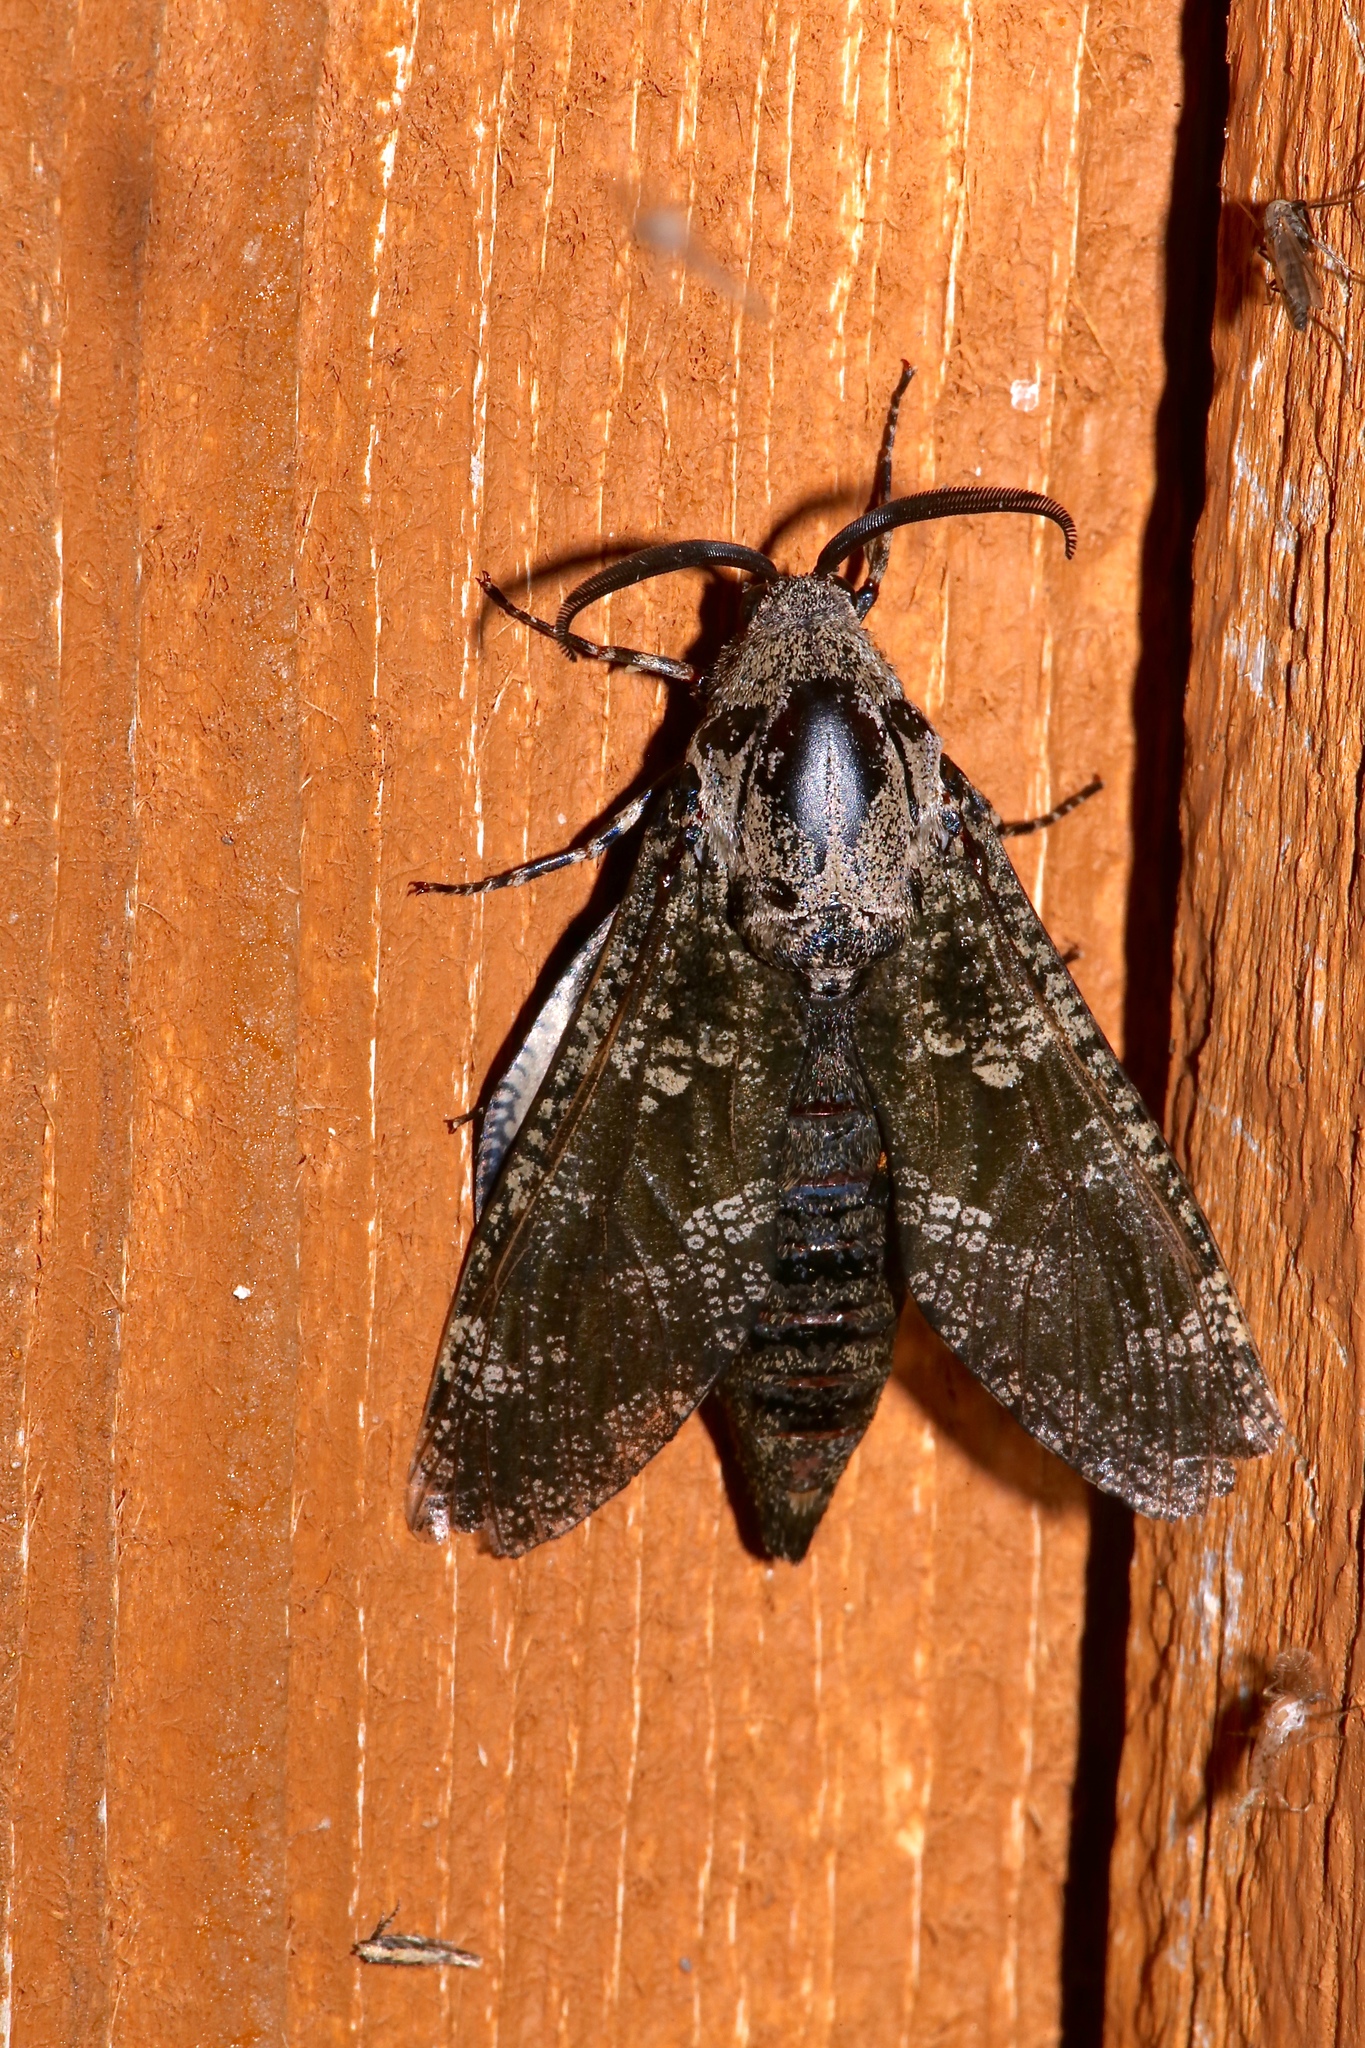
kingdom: Animalia
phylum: Arthropoda
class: Insecta
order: Lepidoptera
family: Cossidae
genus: Prionoxystus
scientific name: Prionoxystus robiniae
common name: Carpenterworm
